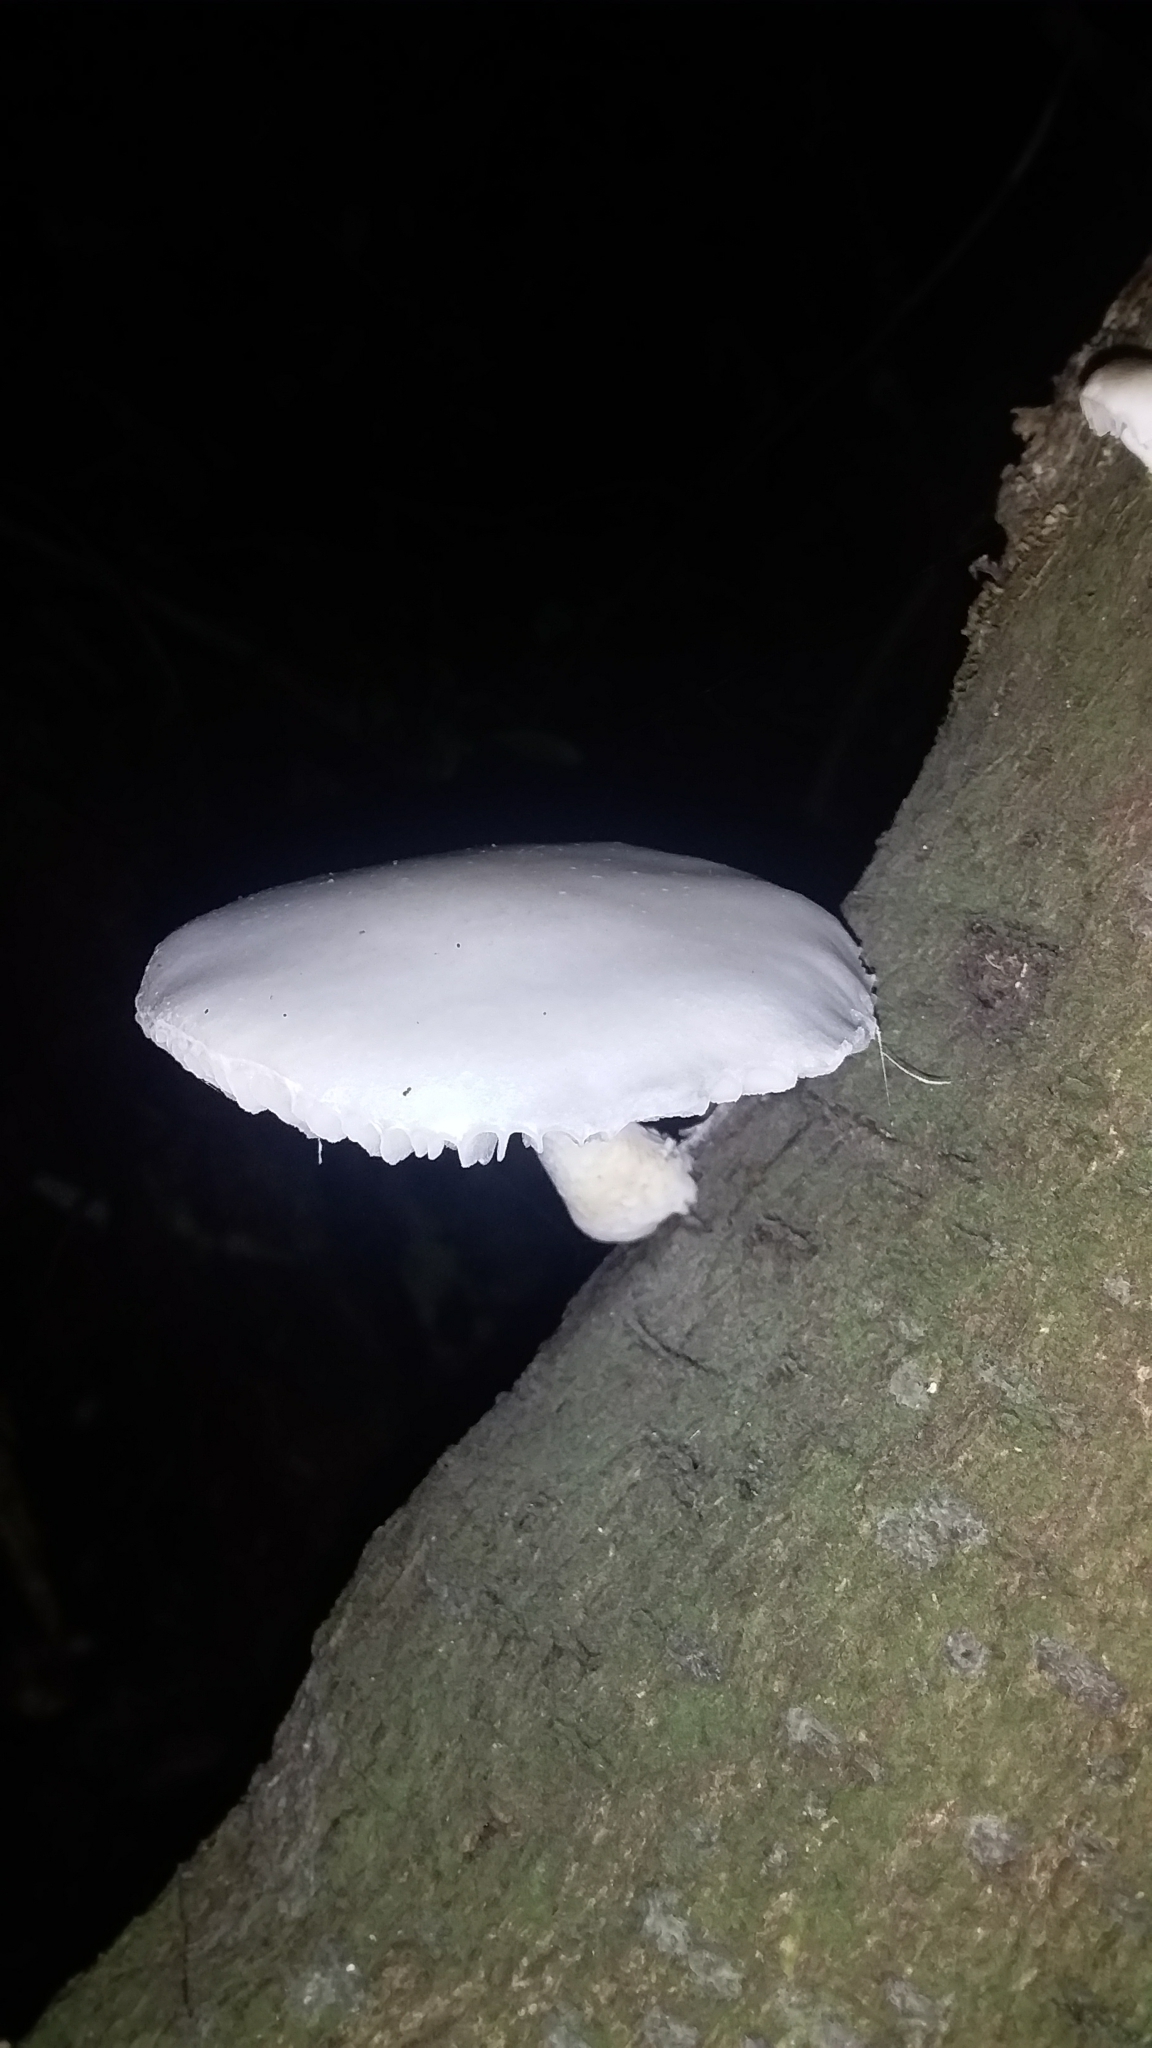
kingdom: Fungi
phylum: Basidiomycota
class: Agaricomycetes
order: Agaricales
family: Physalacriaceae
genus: Oudemansiella
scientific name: Oudemansiella australis
